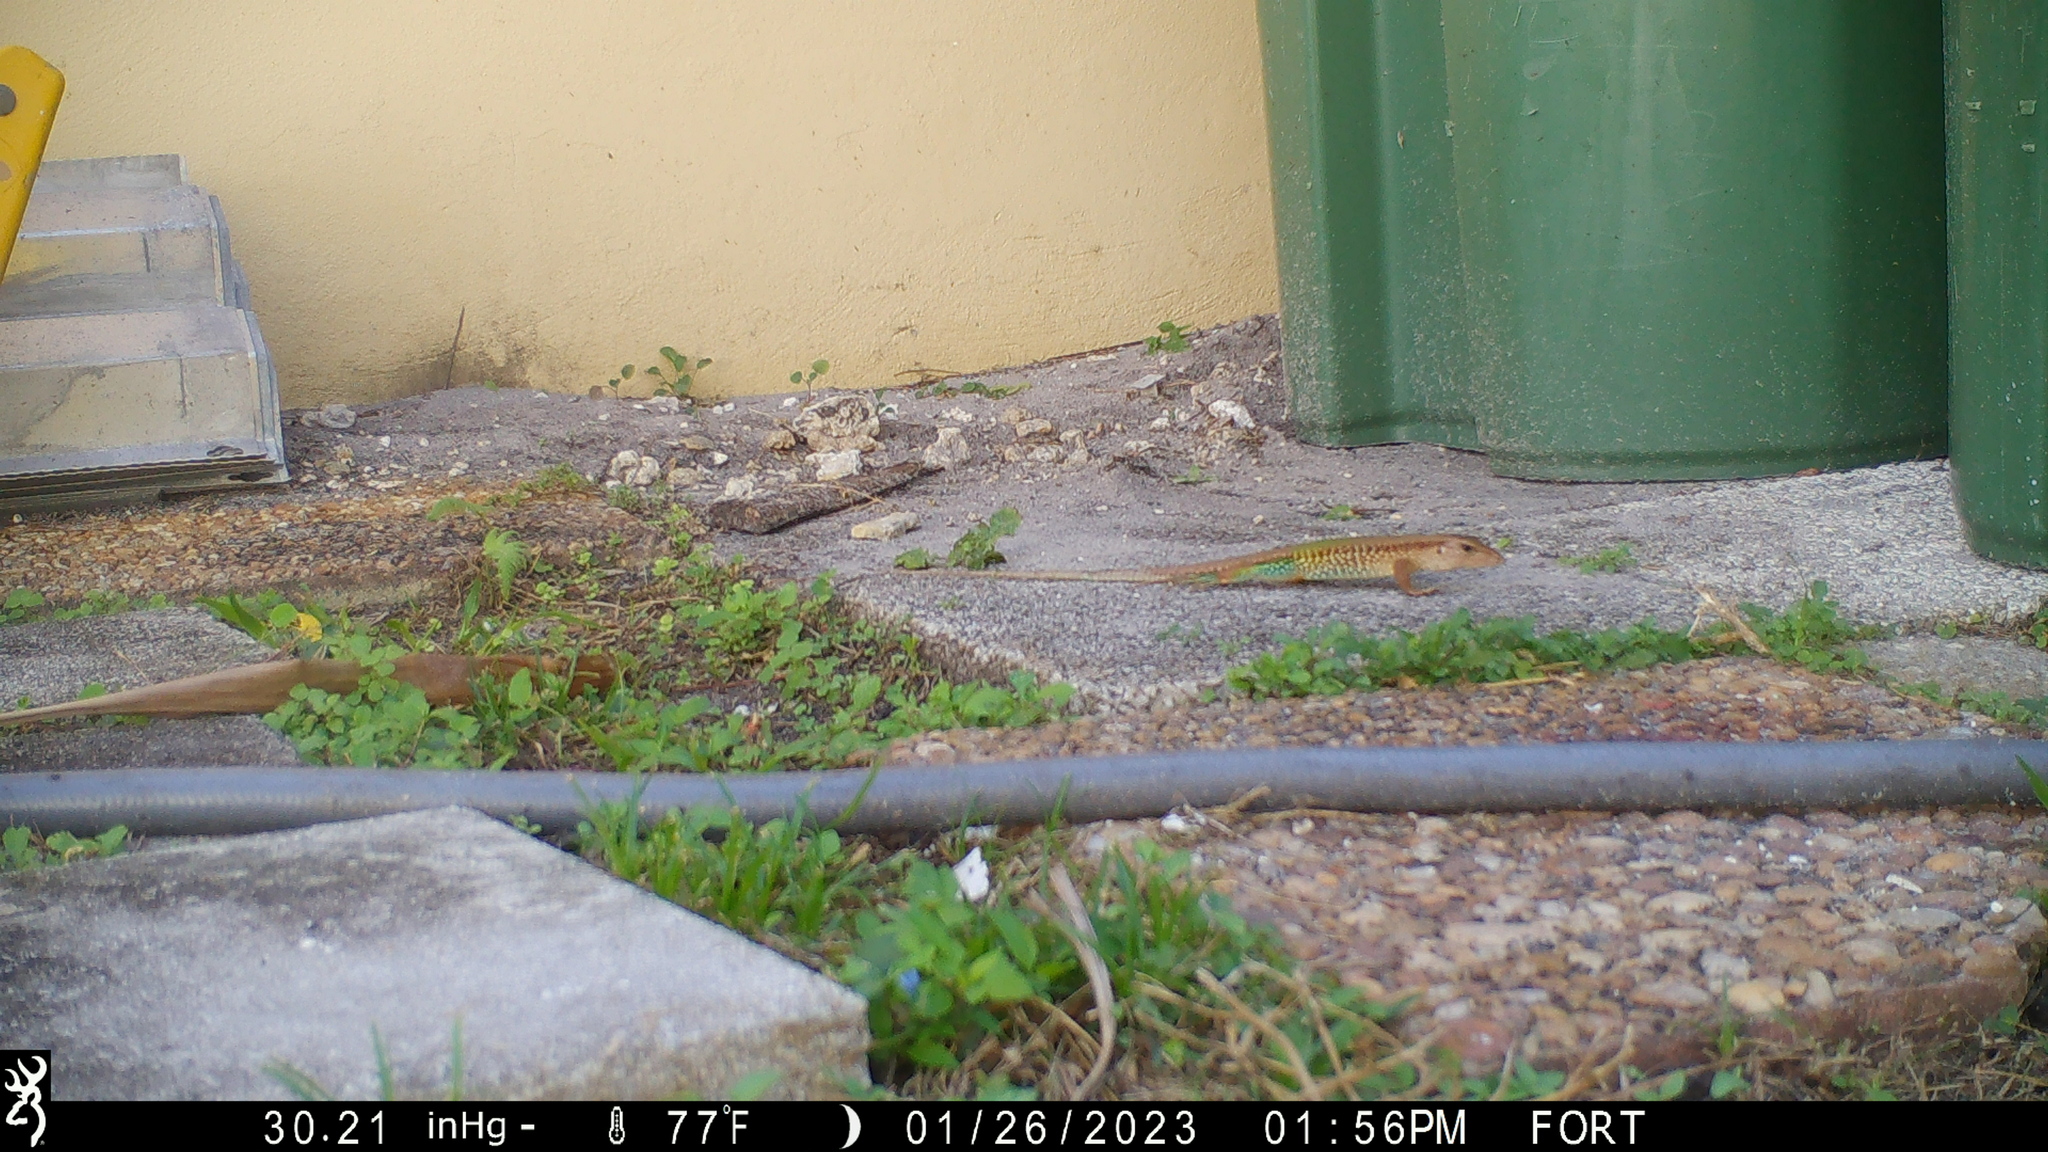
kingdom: Animalia
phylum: Chordata
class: Squamata
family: Teiidae
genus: Ameiva
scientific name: Ameiva ameiva
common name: Giant ameiva
